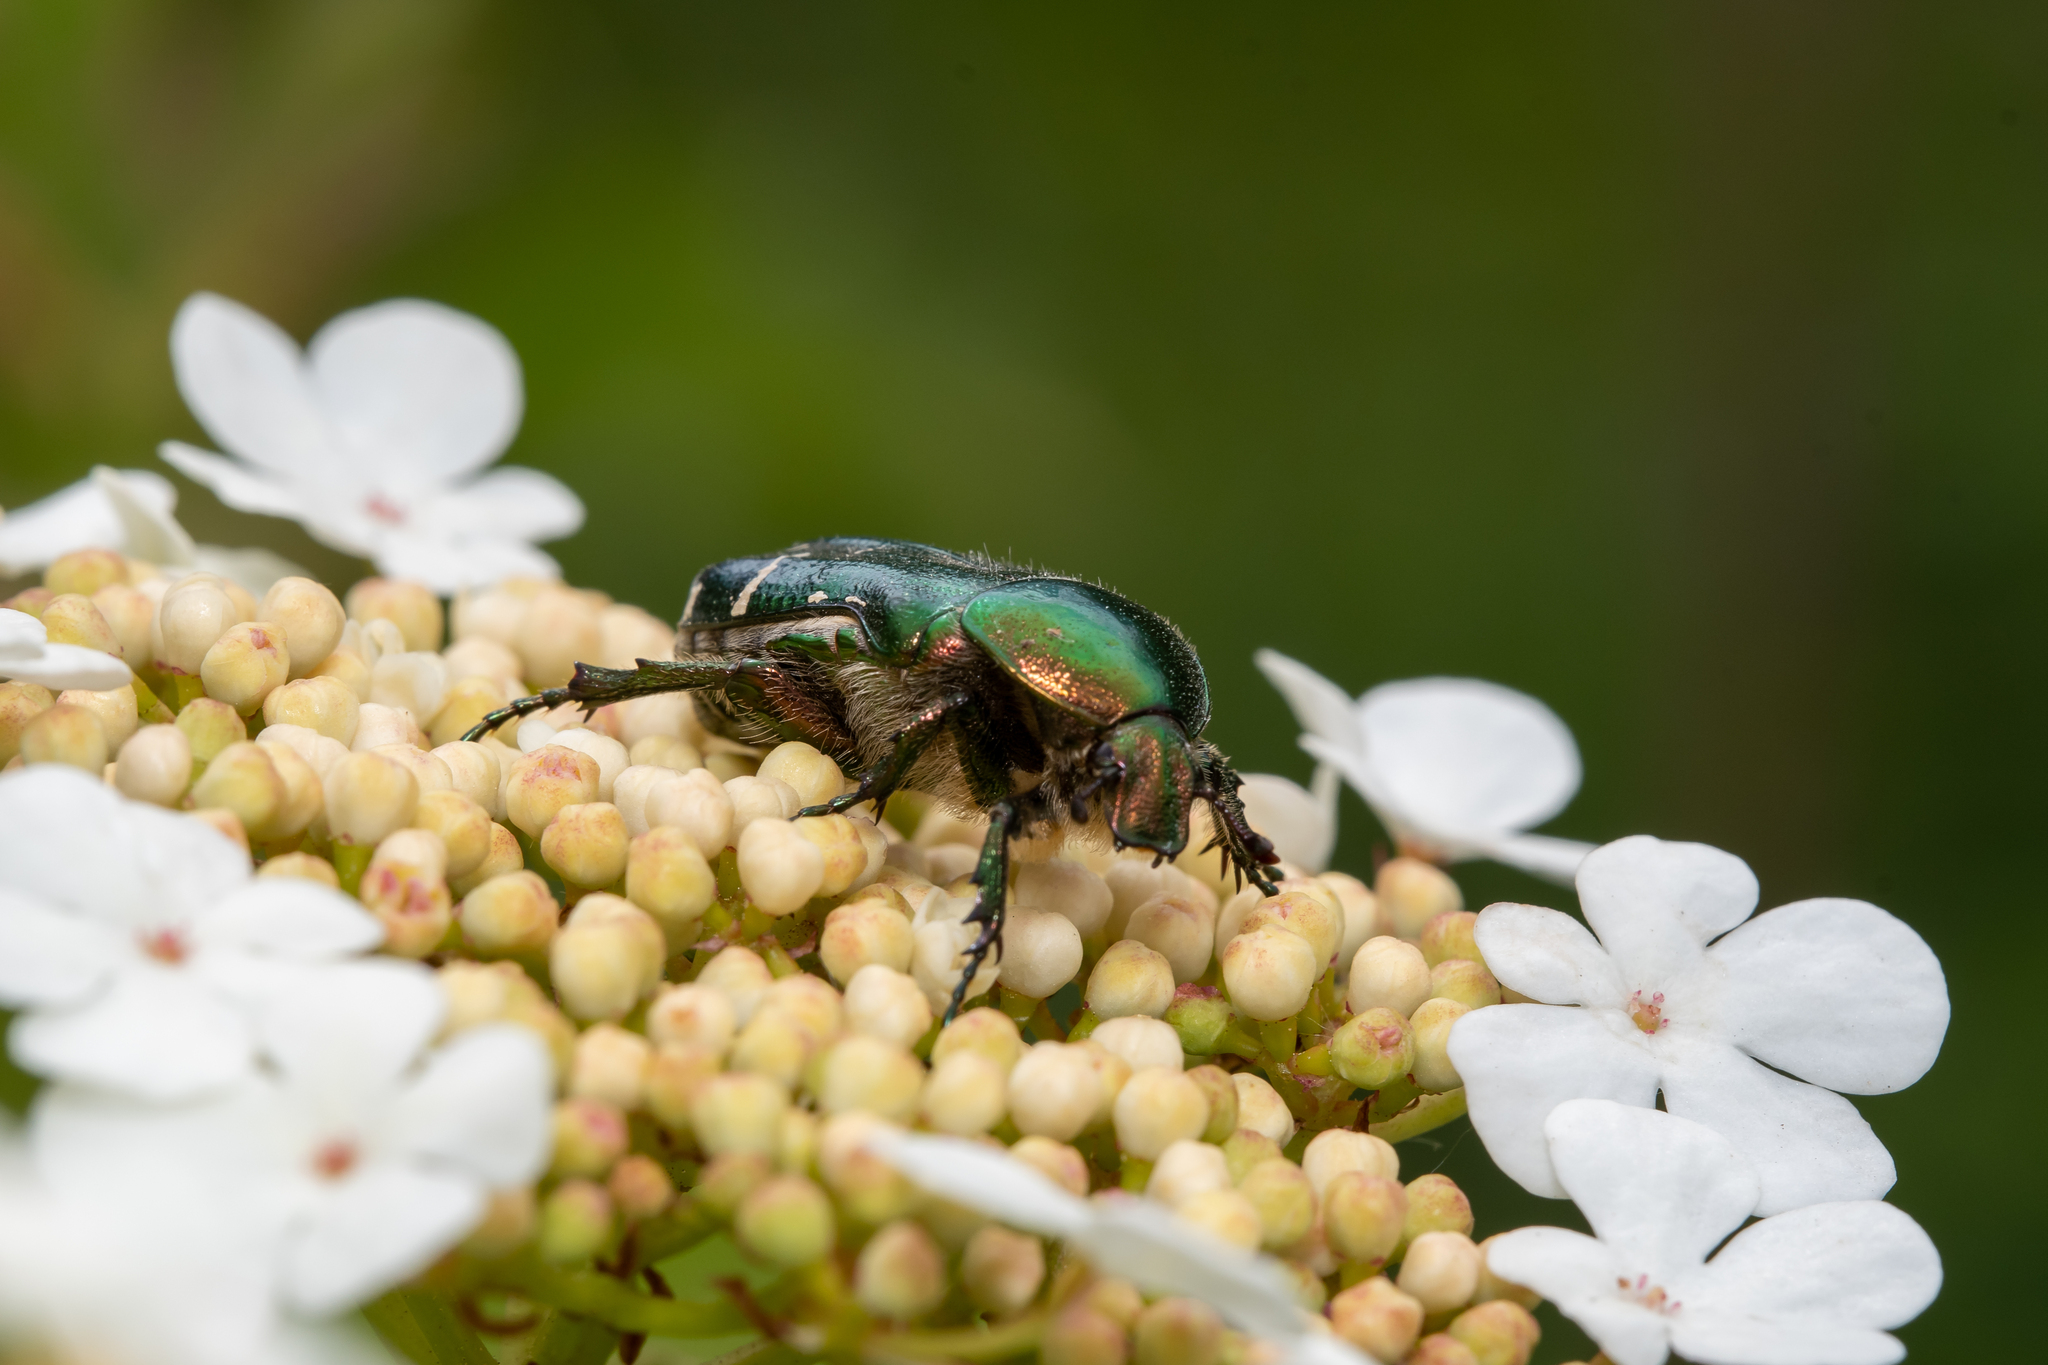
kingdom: Animalia
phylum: Arthropoda
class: Insecta
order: Coleoptera
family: Scarabaeidae
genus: Cetonia
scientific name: Cetonia aurata
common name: Rose chafer
